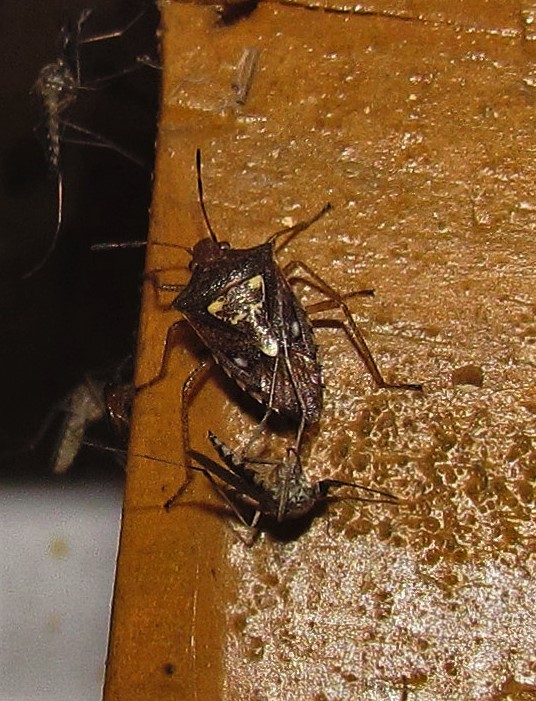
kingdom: Animalia
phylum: Arthropoda
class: Insecta
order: Hemiptera
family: Pentatomidae
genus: Oebalus
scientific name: Oebalus poecilus
